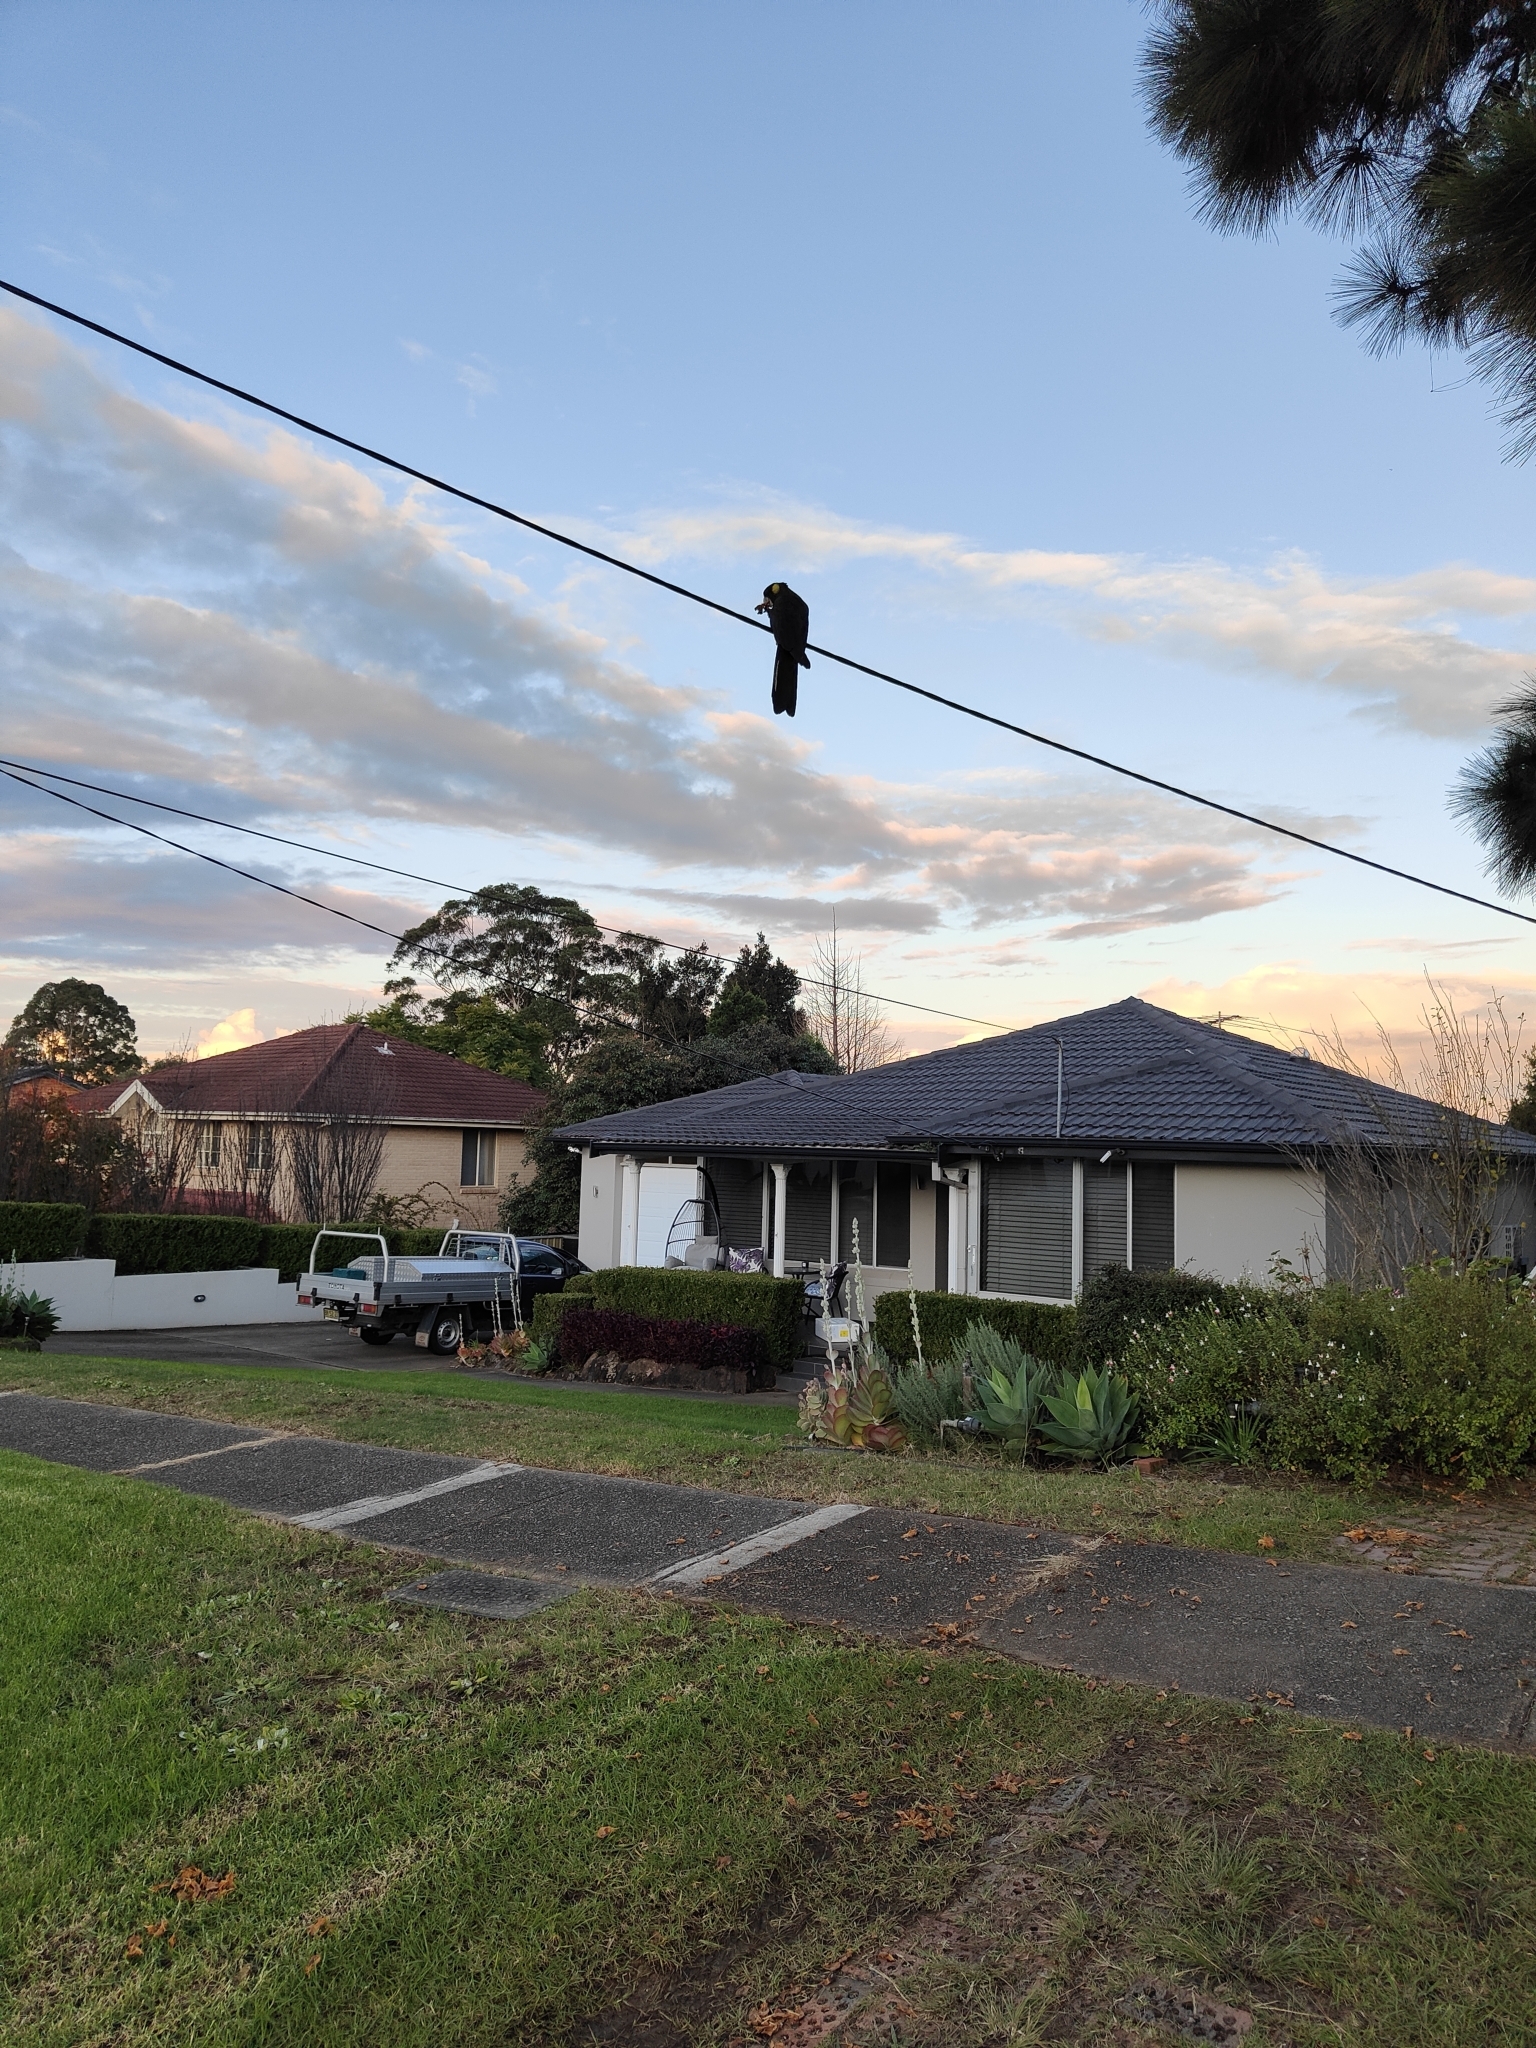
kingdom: Animalia
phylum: Chordata
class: Aves
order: Psittaciformes
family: Cacatuidae
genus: Zanda
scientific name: Zanda funerea
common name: Yellow-tailed black-cockatoo
